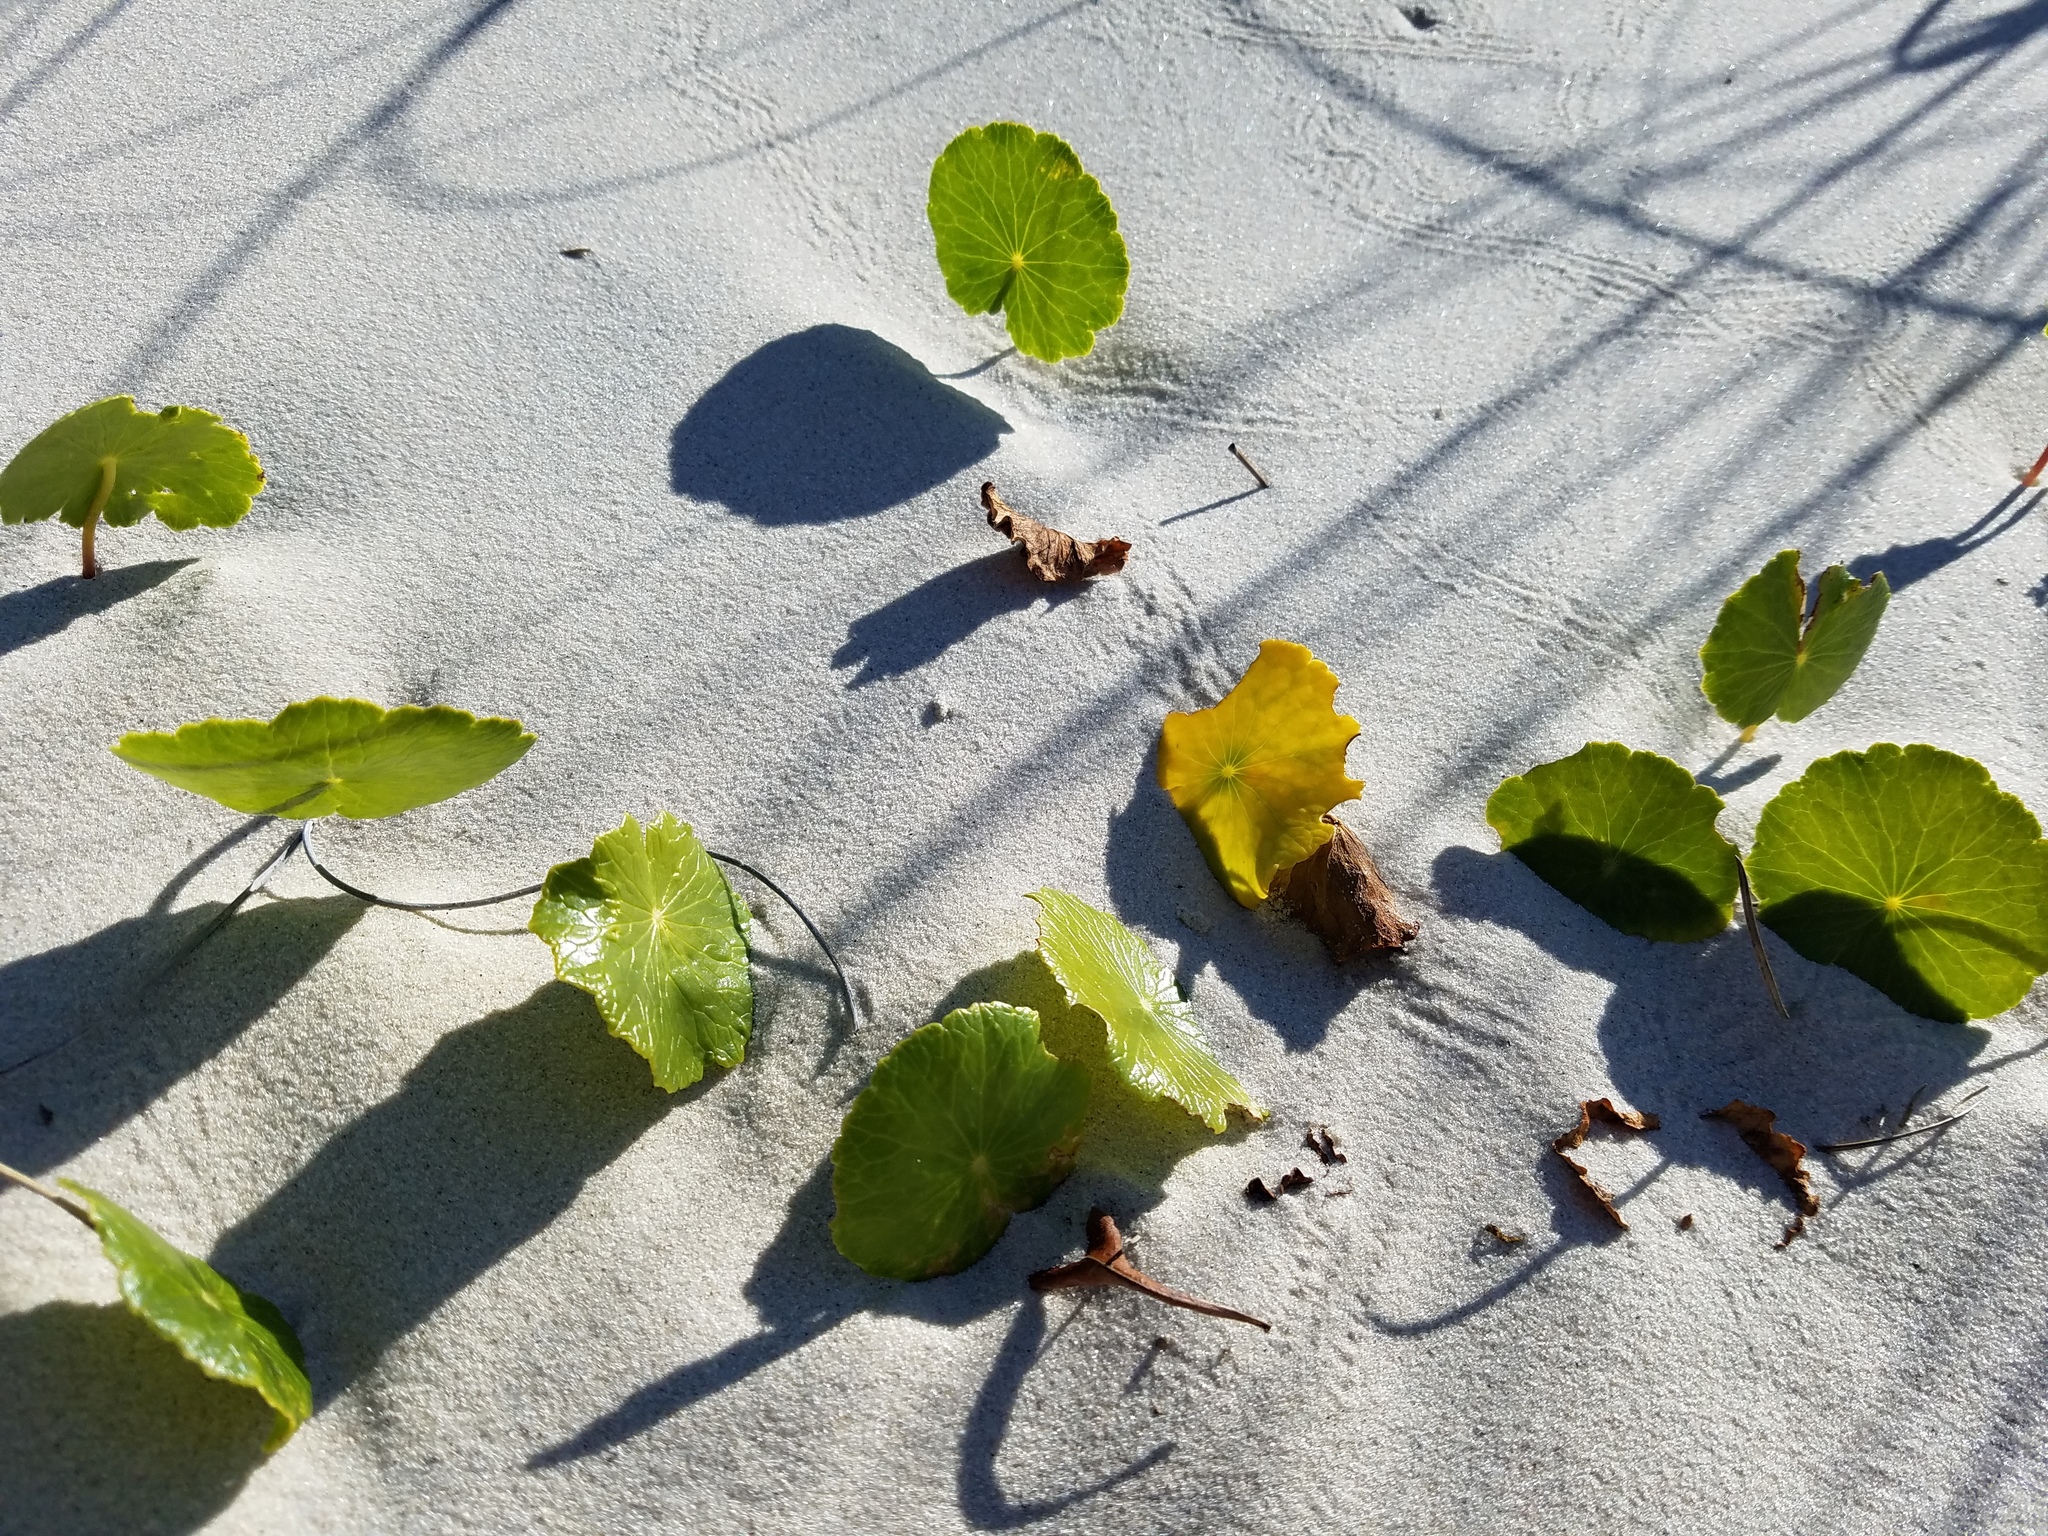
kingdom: Plantae
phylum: Tracheophyta
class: Magnoliopsida
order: Apiales
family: Araliaceae
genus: Hydrocotyle
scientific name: Hydrocotyle bonariensis
